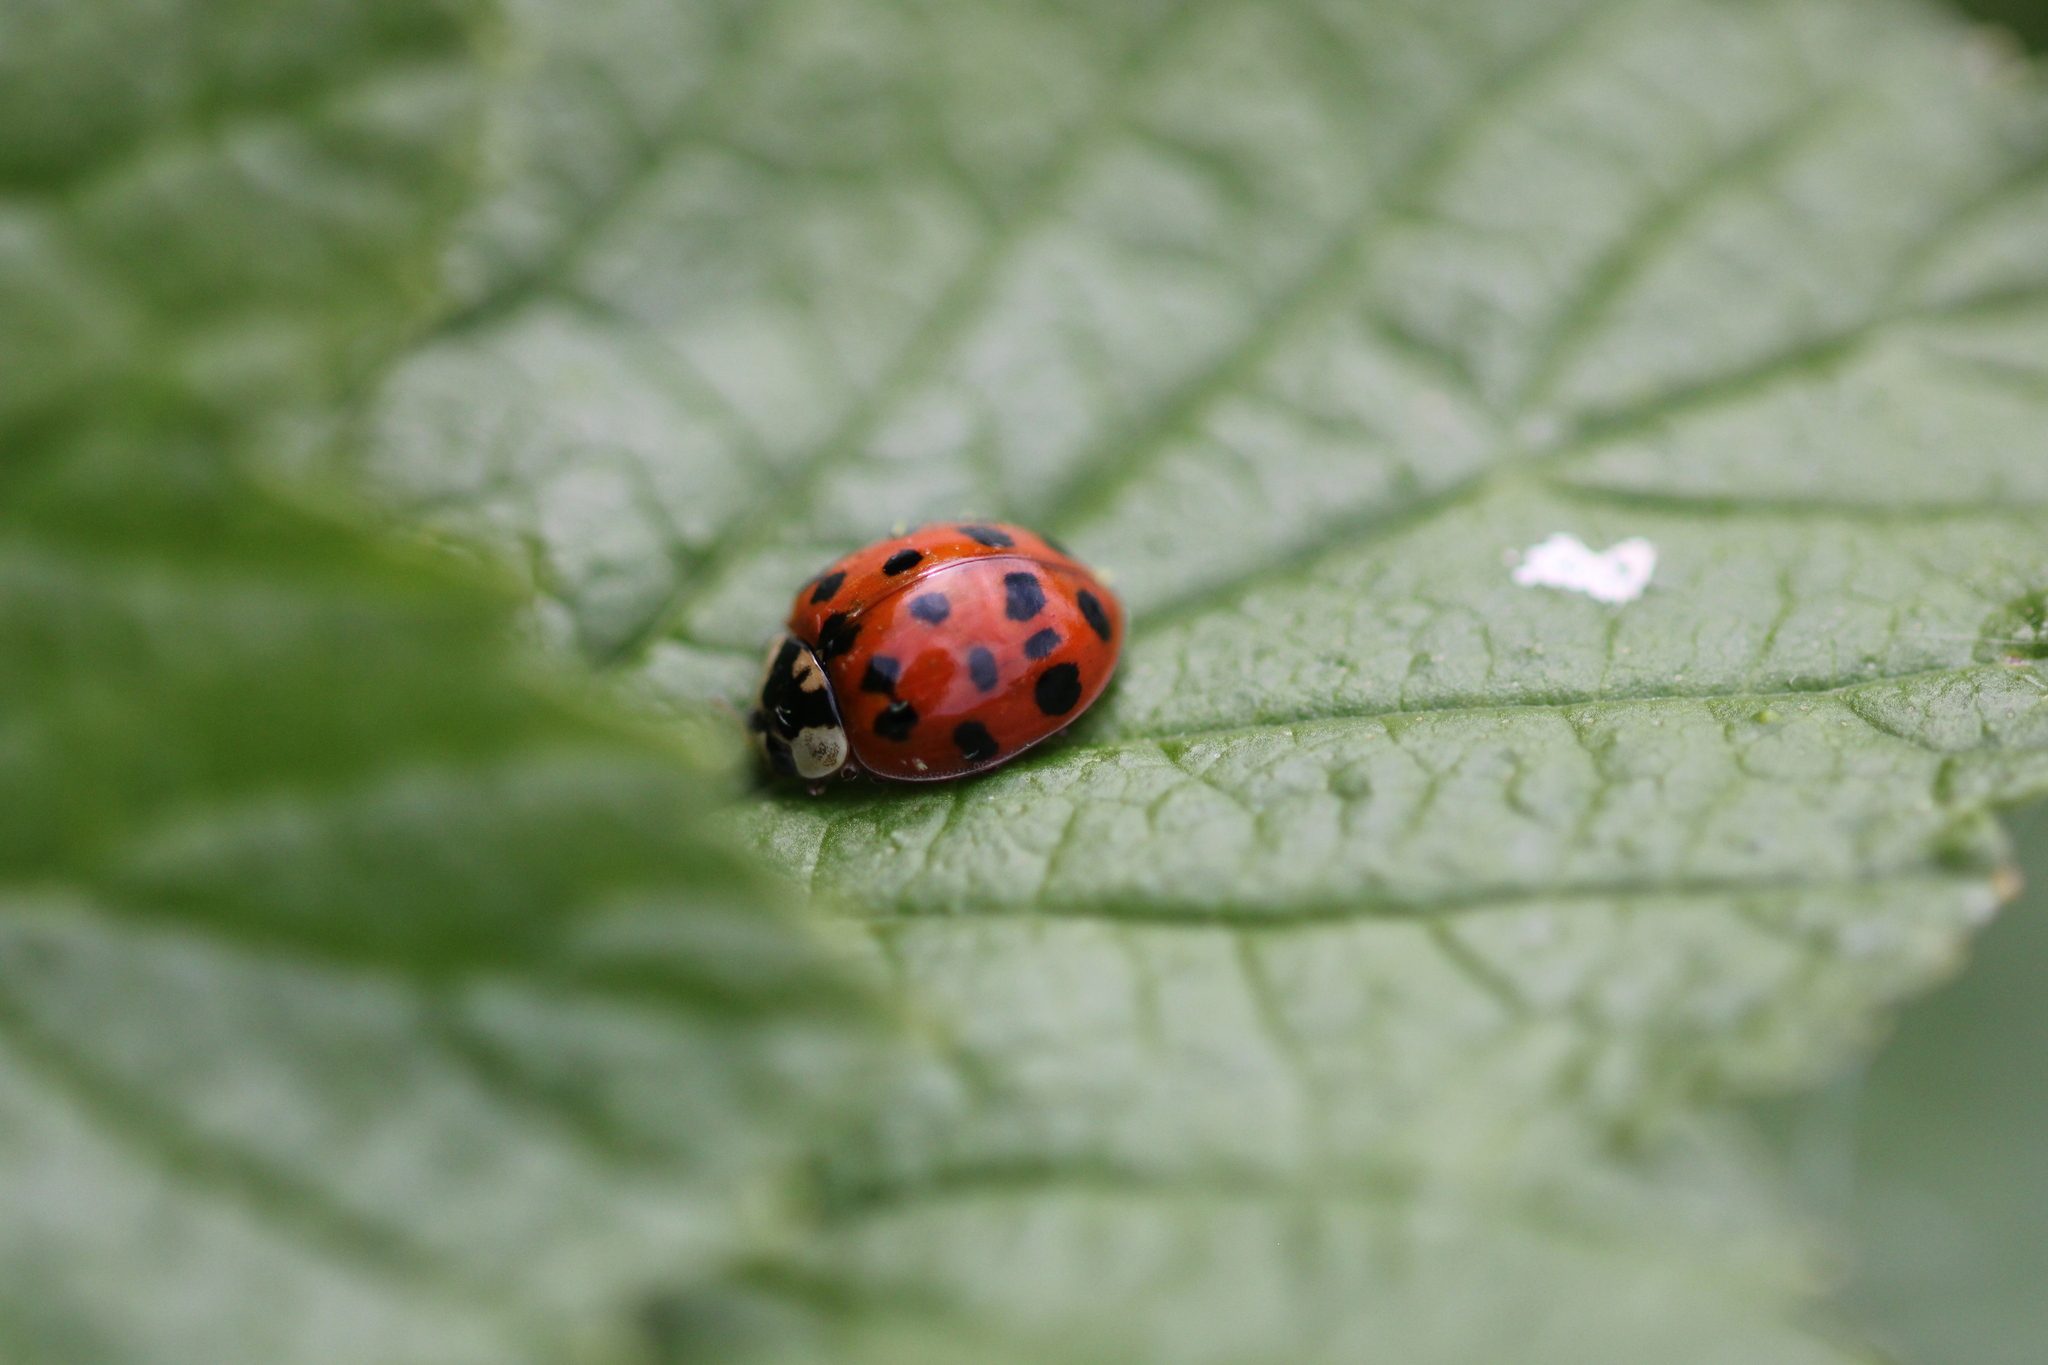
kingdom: Animalia
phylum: Arthropoda
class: Insecta
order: Coleoptera
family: Coccinellidae
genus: Harmonia
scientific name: Harmonia axyridis
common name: Harlequin ladybird
